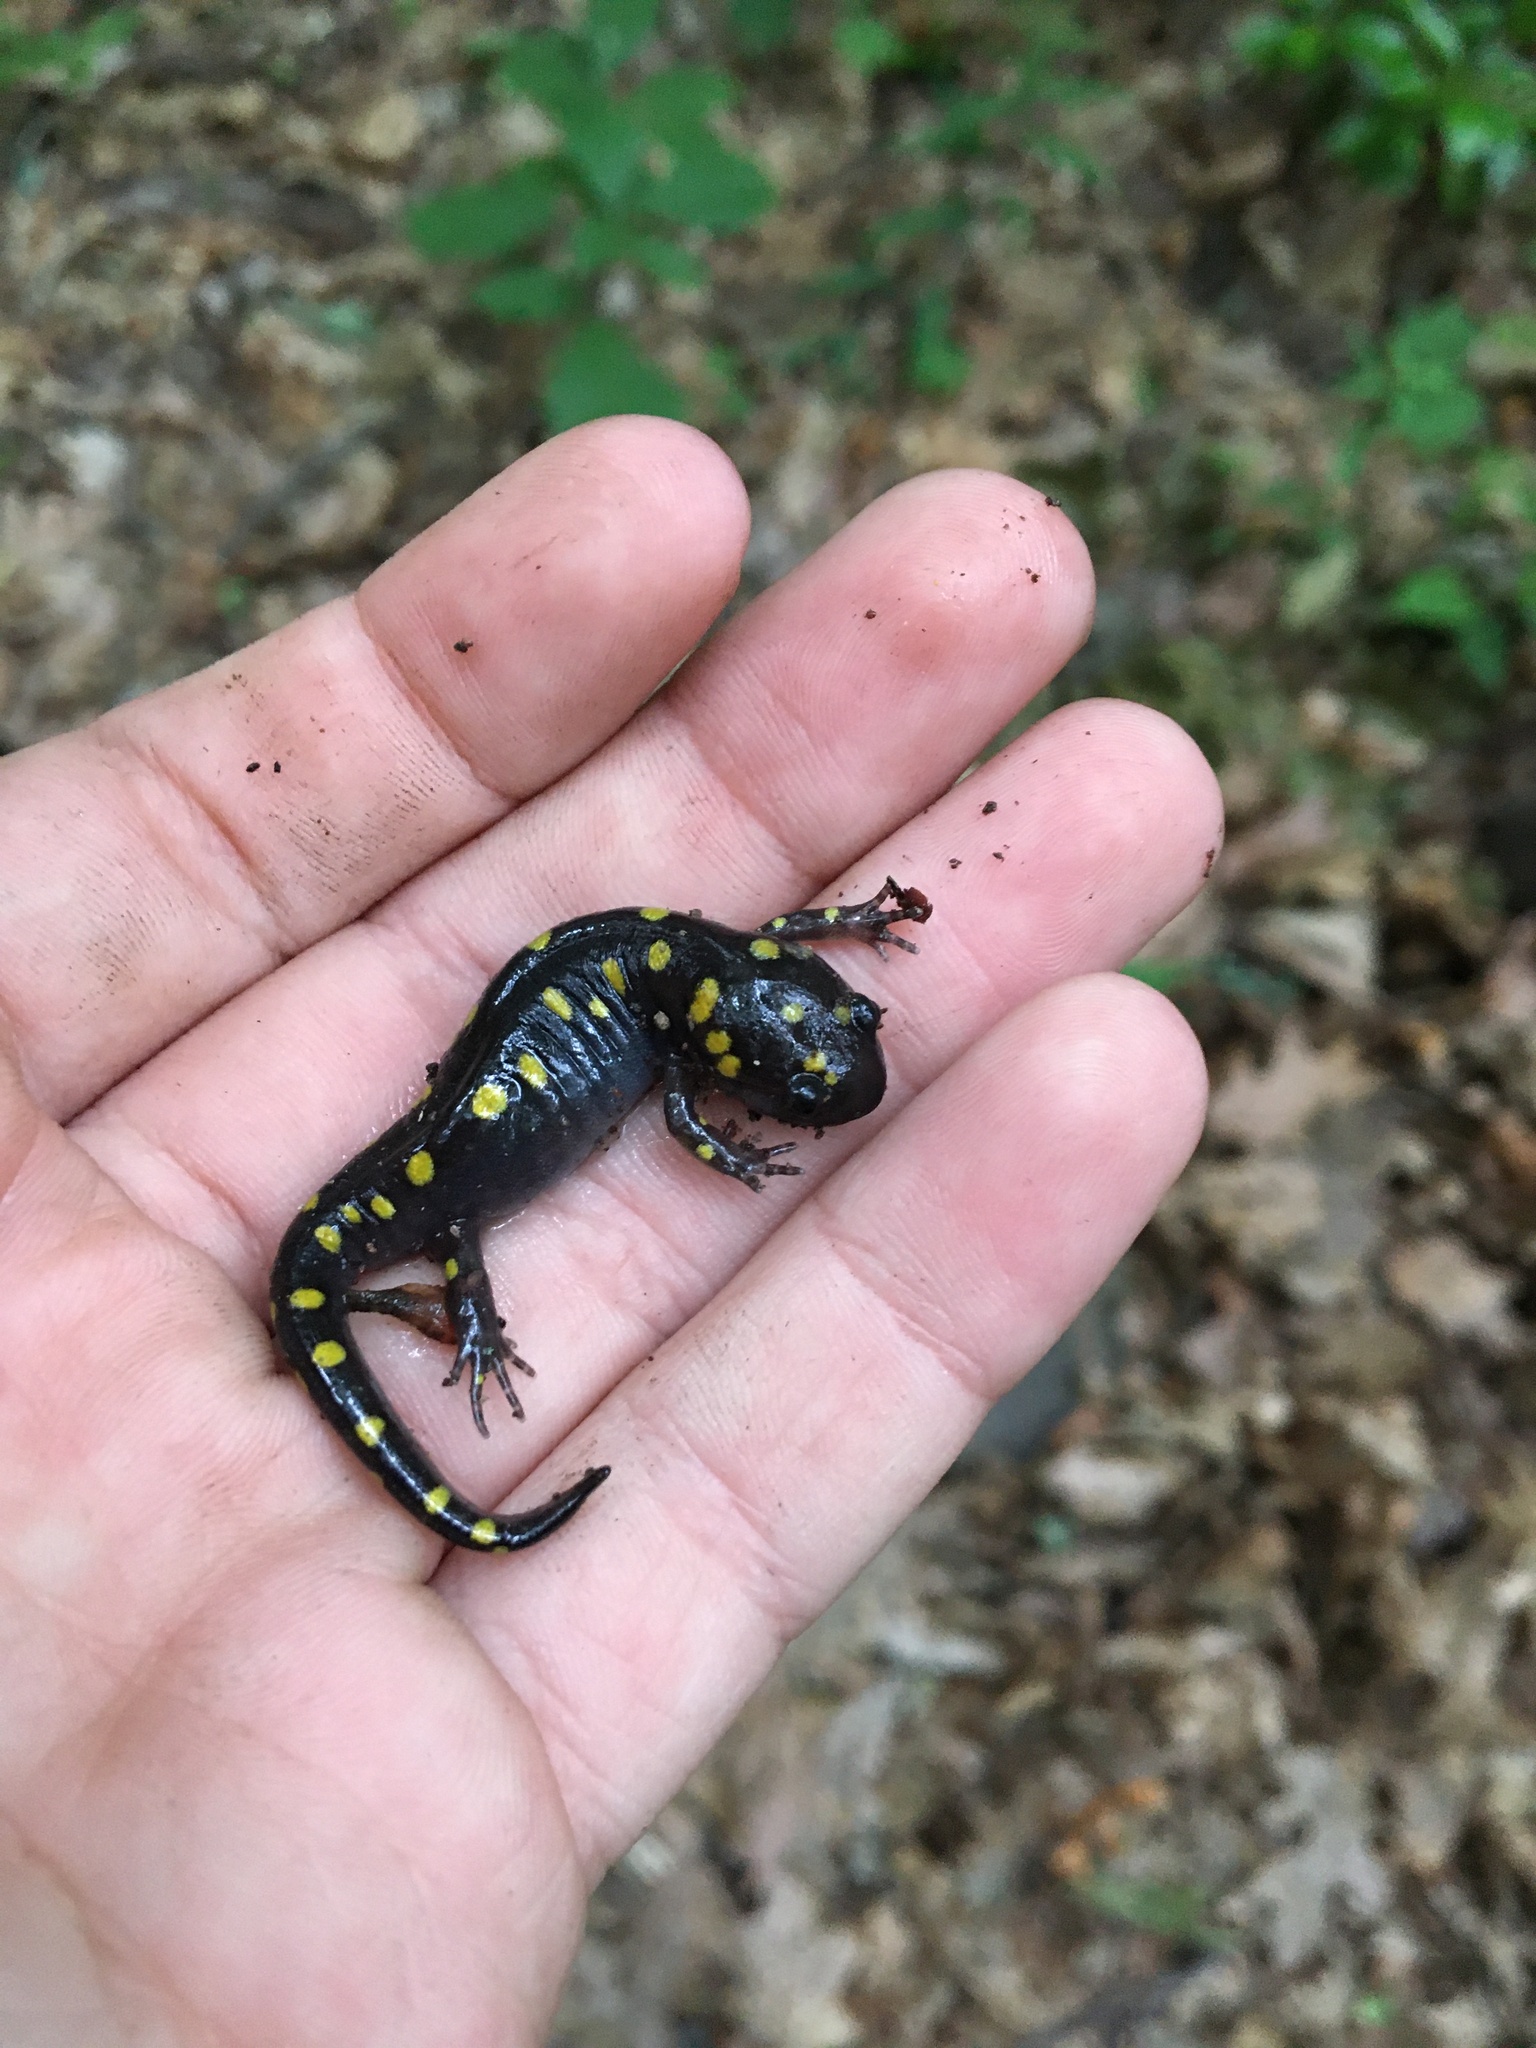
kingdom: Animalia
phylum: Chordata
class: Amphibia
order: Caudata
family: Ambystomatidae
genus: Ambystoma
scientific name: Ambystoma maculatum
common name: Spotted salamander
